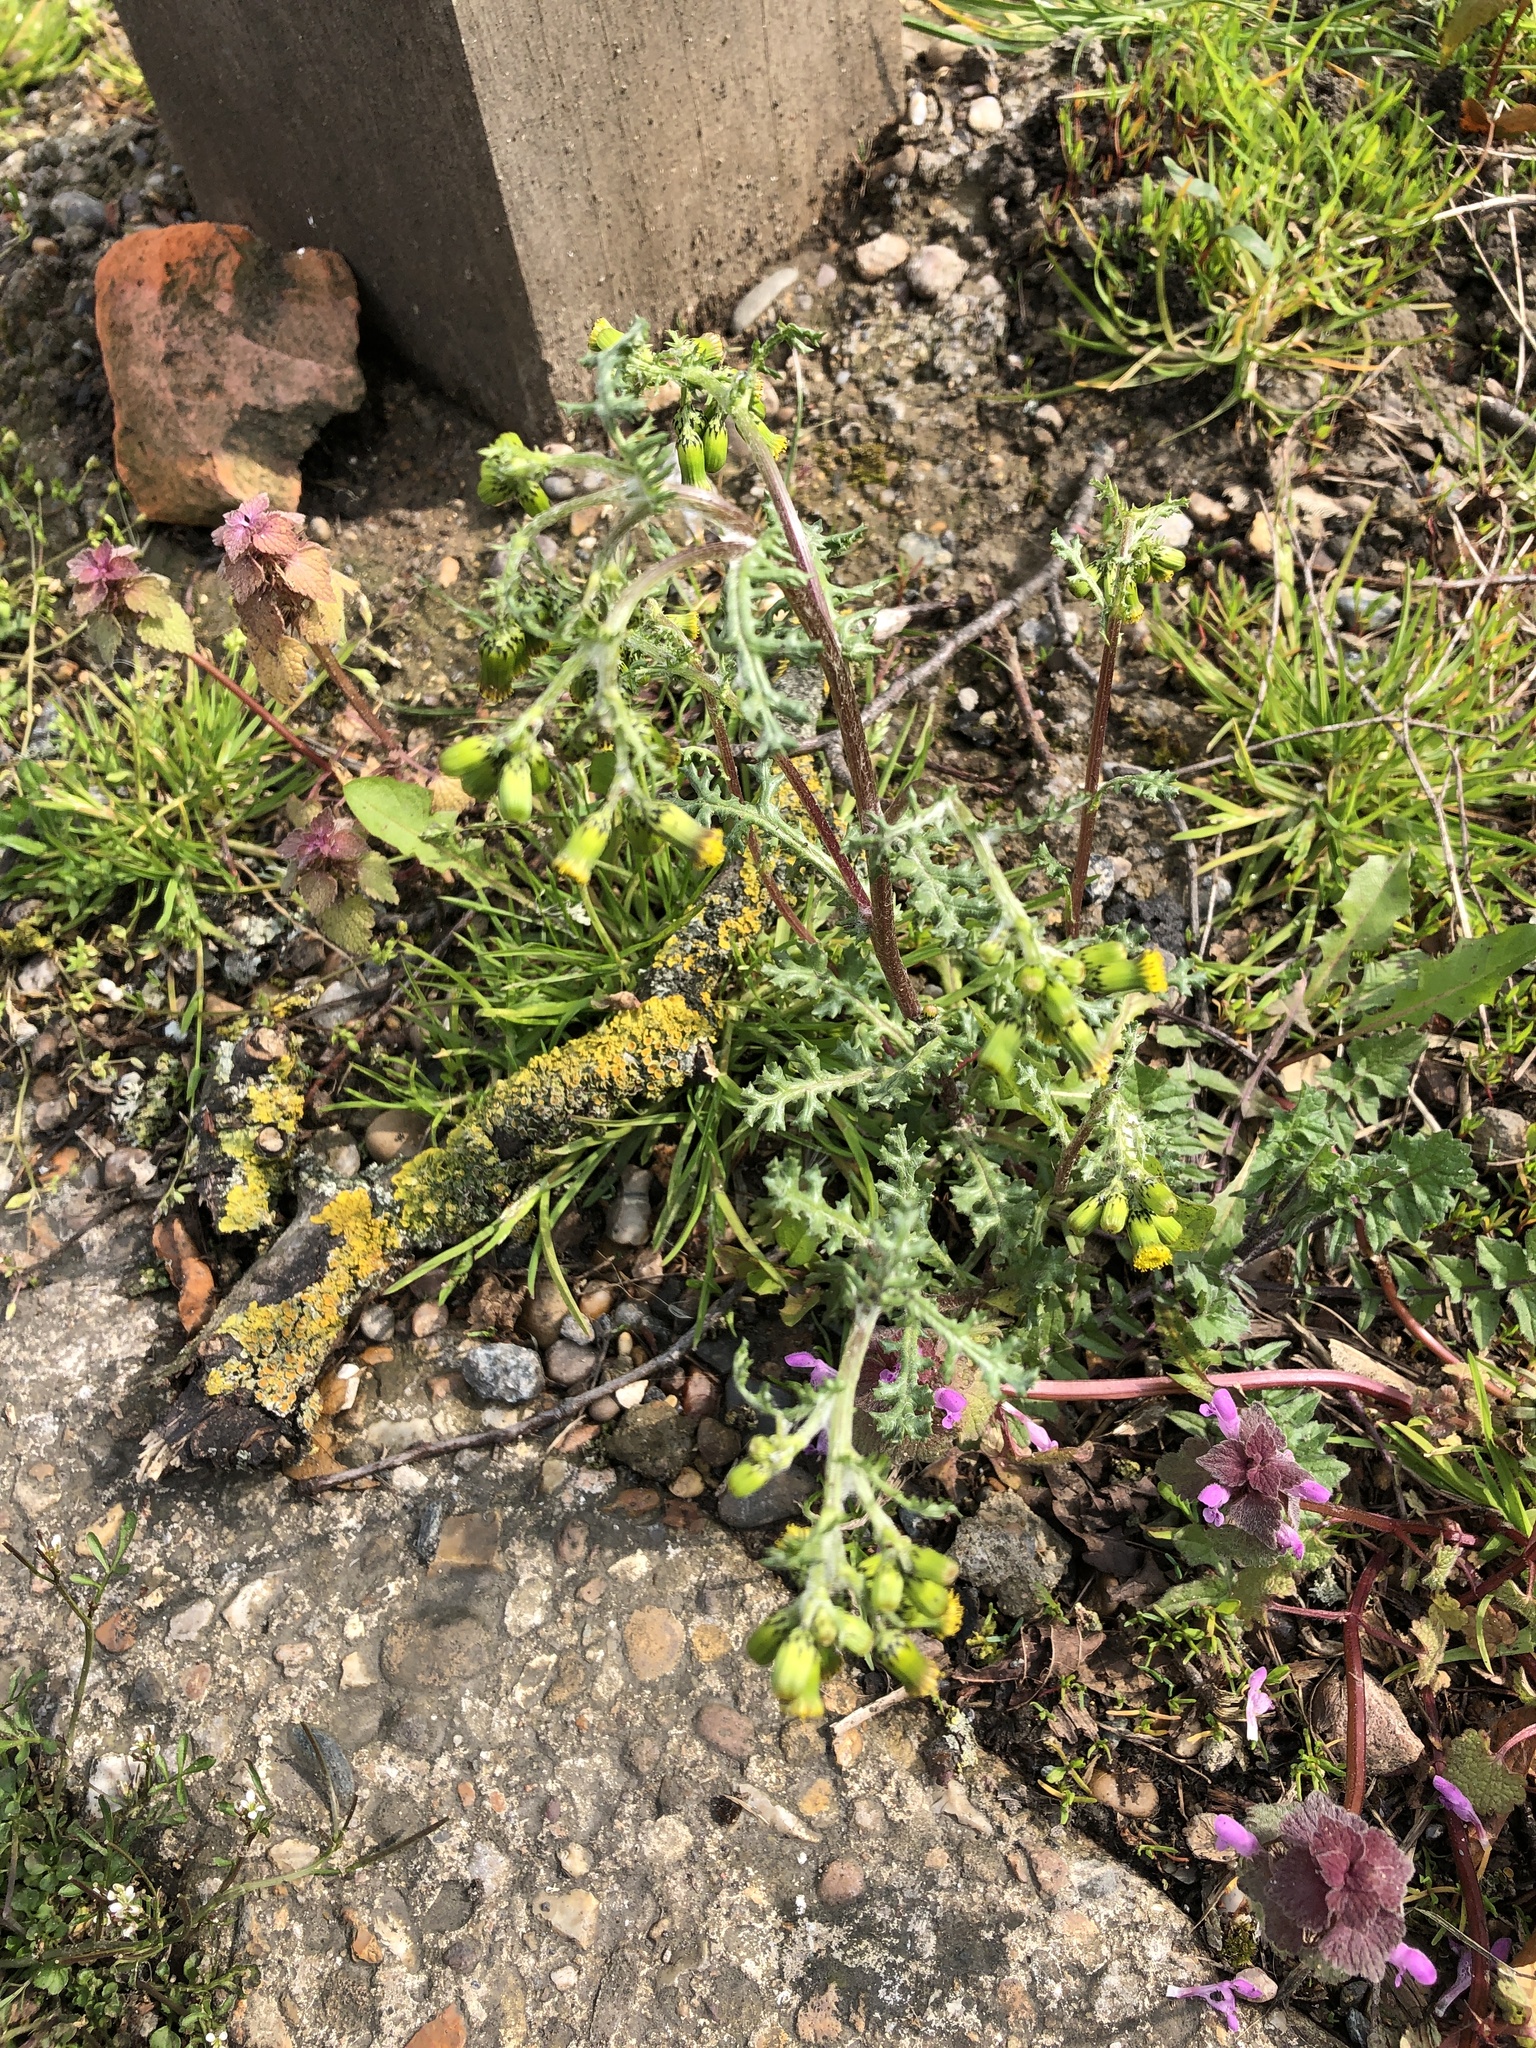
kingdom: Plantae
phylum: Tracheophyta
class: Magnoliopsida
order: Asterales
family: Asteraceae
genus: Senecio
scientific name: Senecio vulgaris
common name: Old-man-in-the-spring
